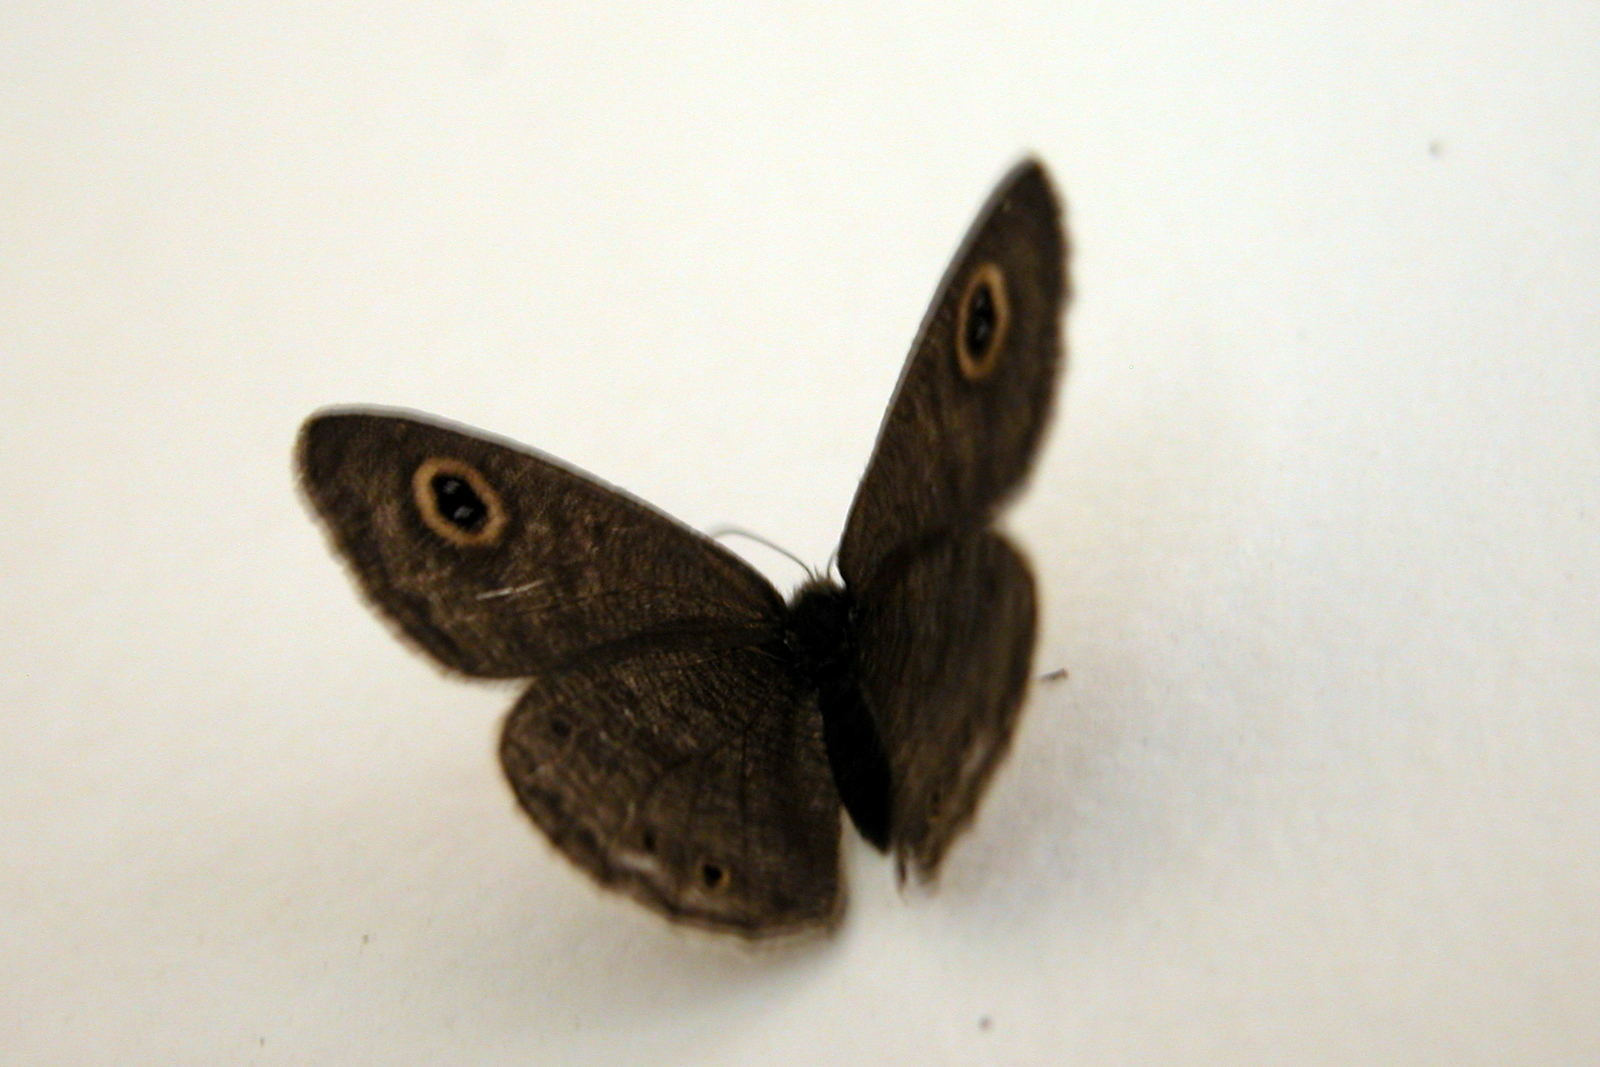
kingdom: Animalia
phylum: Arthropoda
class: Insecta
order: Lepidoptera
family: Nymphalidae
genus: Ypthima
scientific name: Ypthima huebneri
